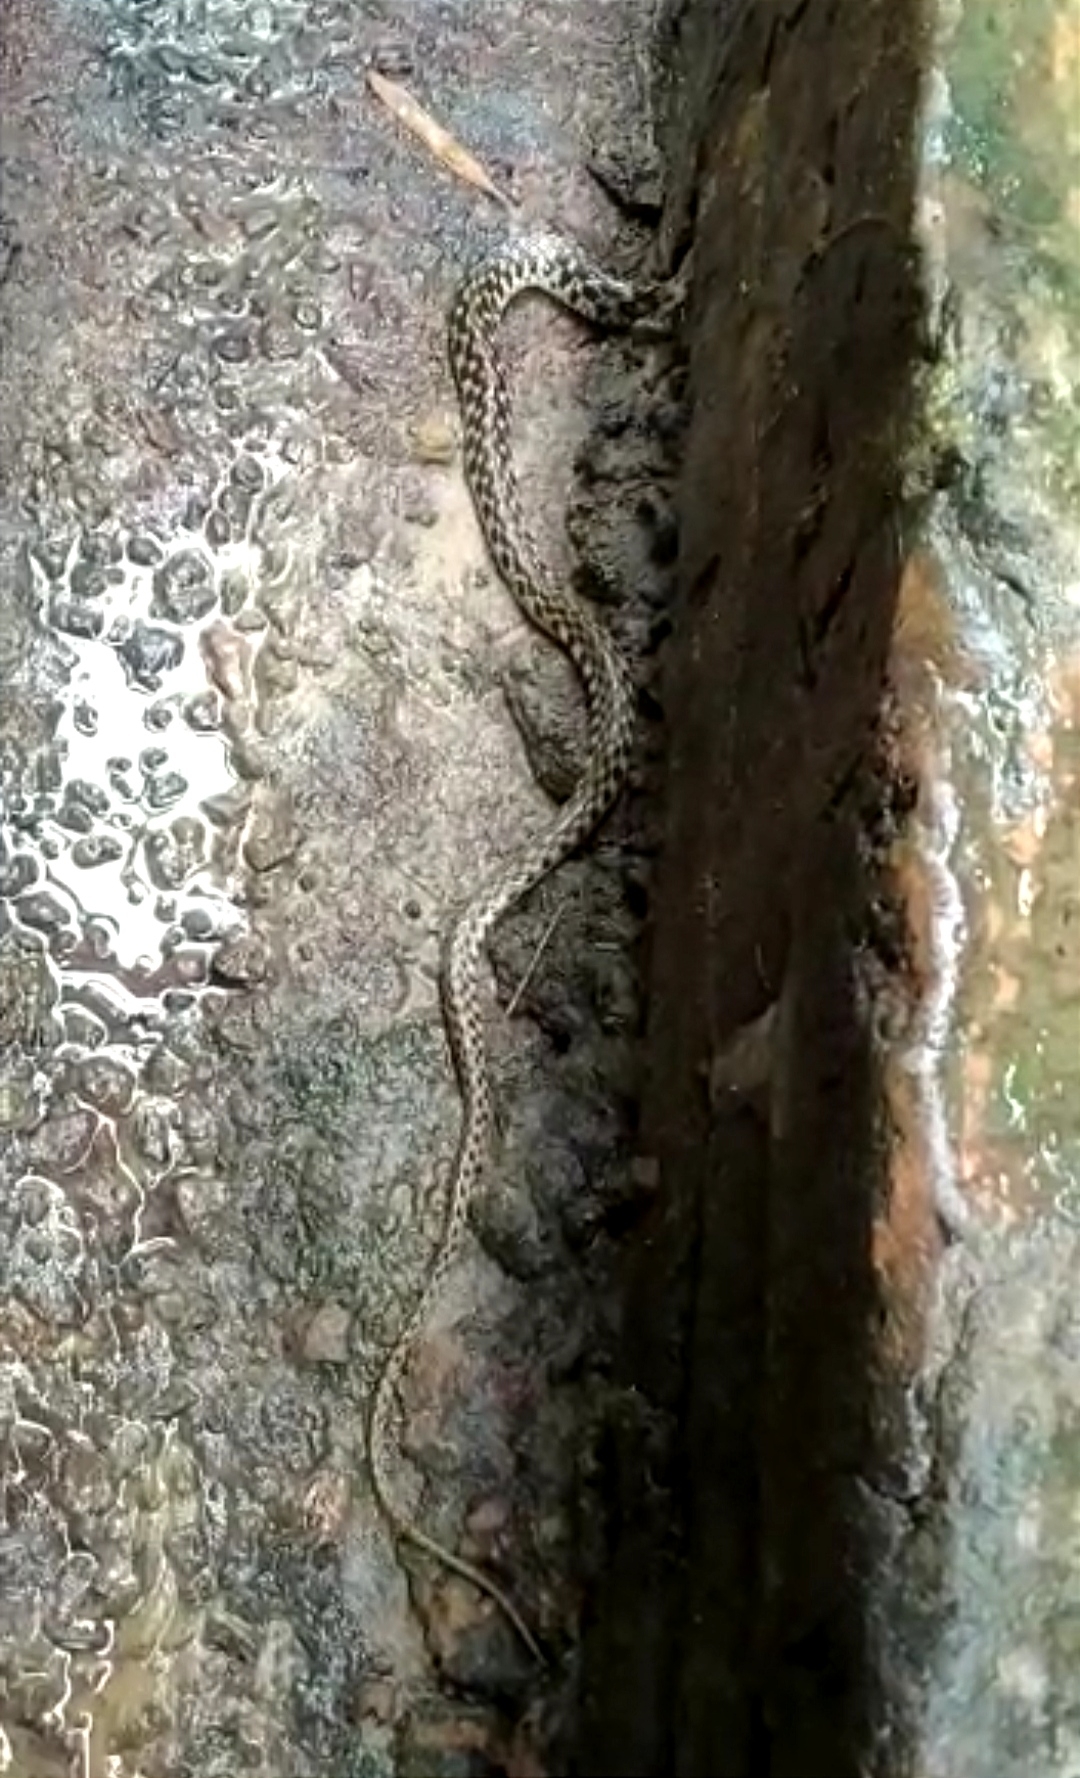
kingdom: Animalia
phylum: Chordata
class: Squamata
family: Colubridae
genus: Fowlea
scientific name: Fowlea piscator
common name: Asiatic water snake
